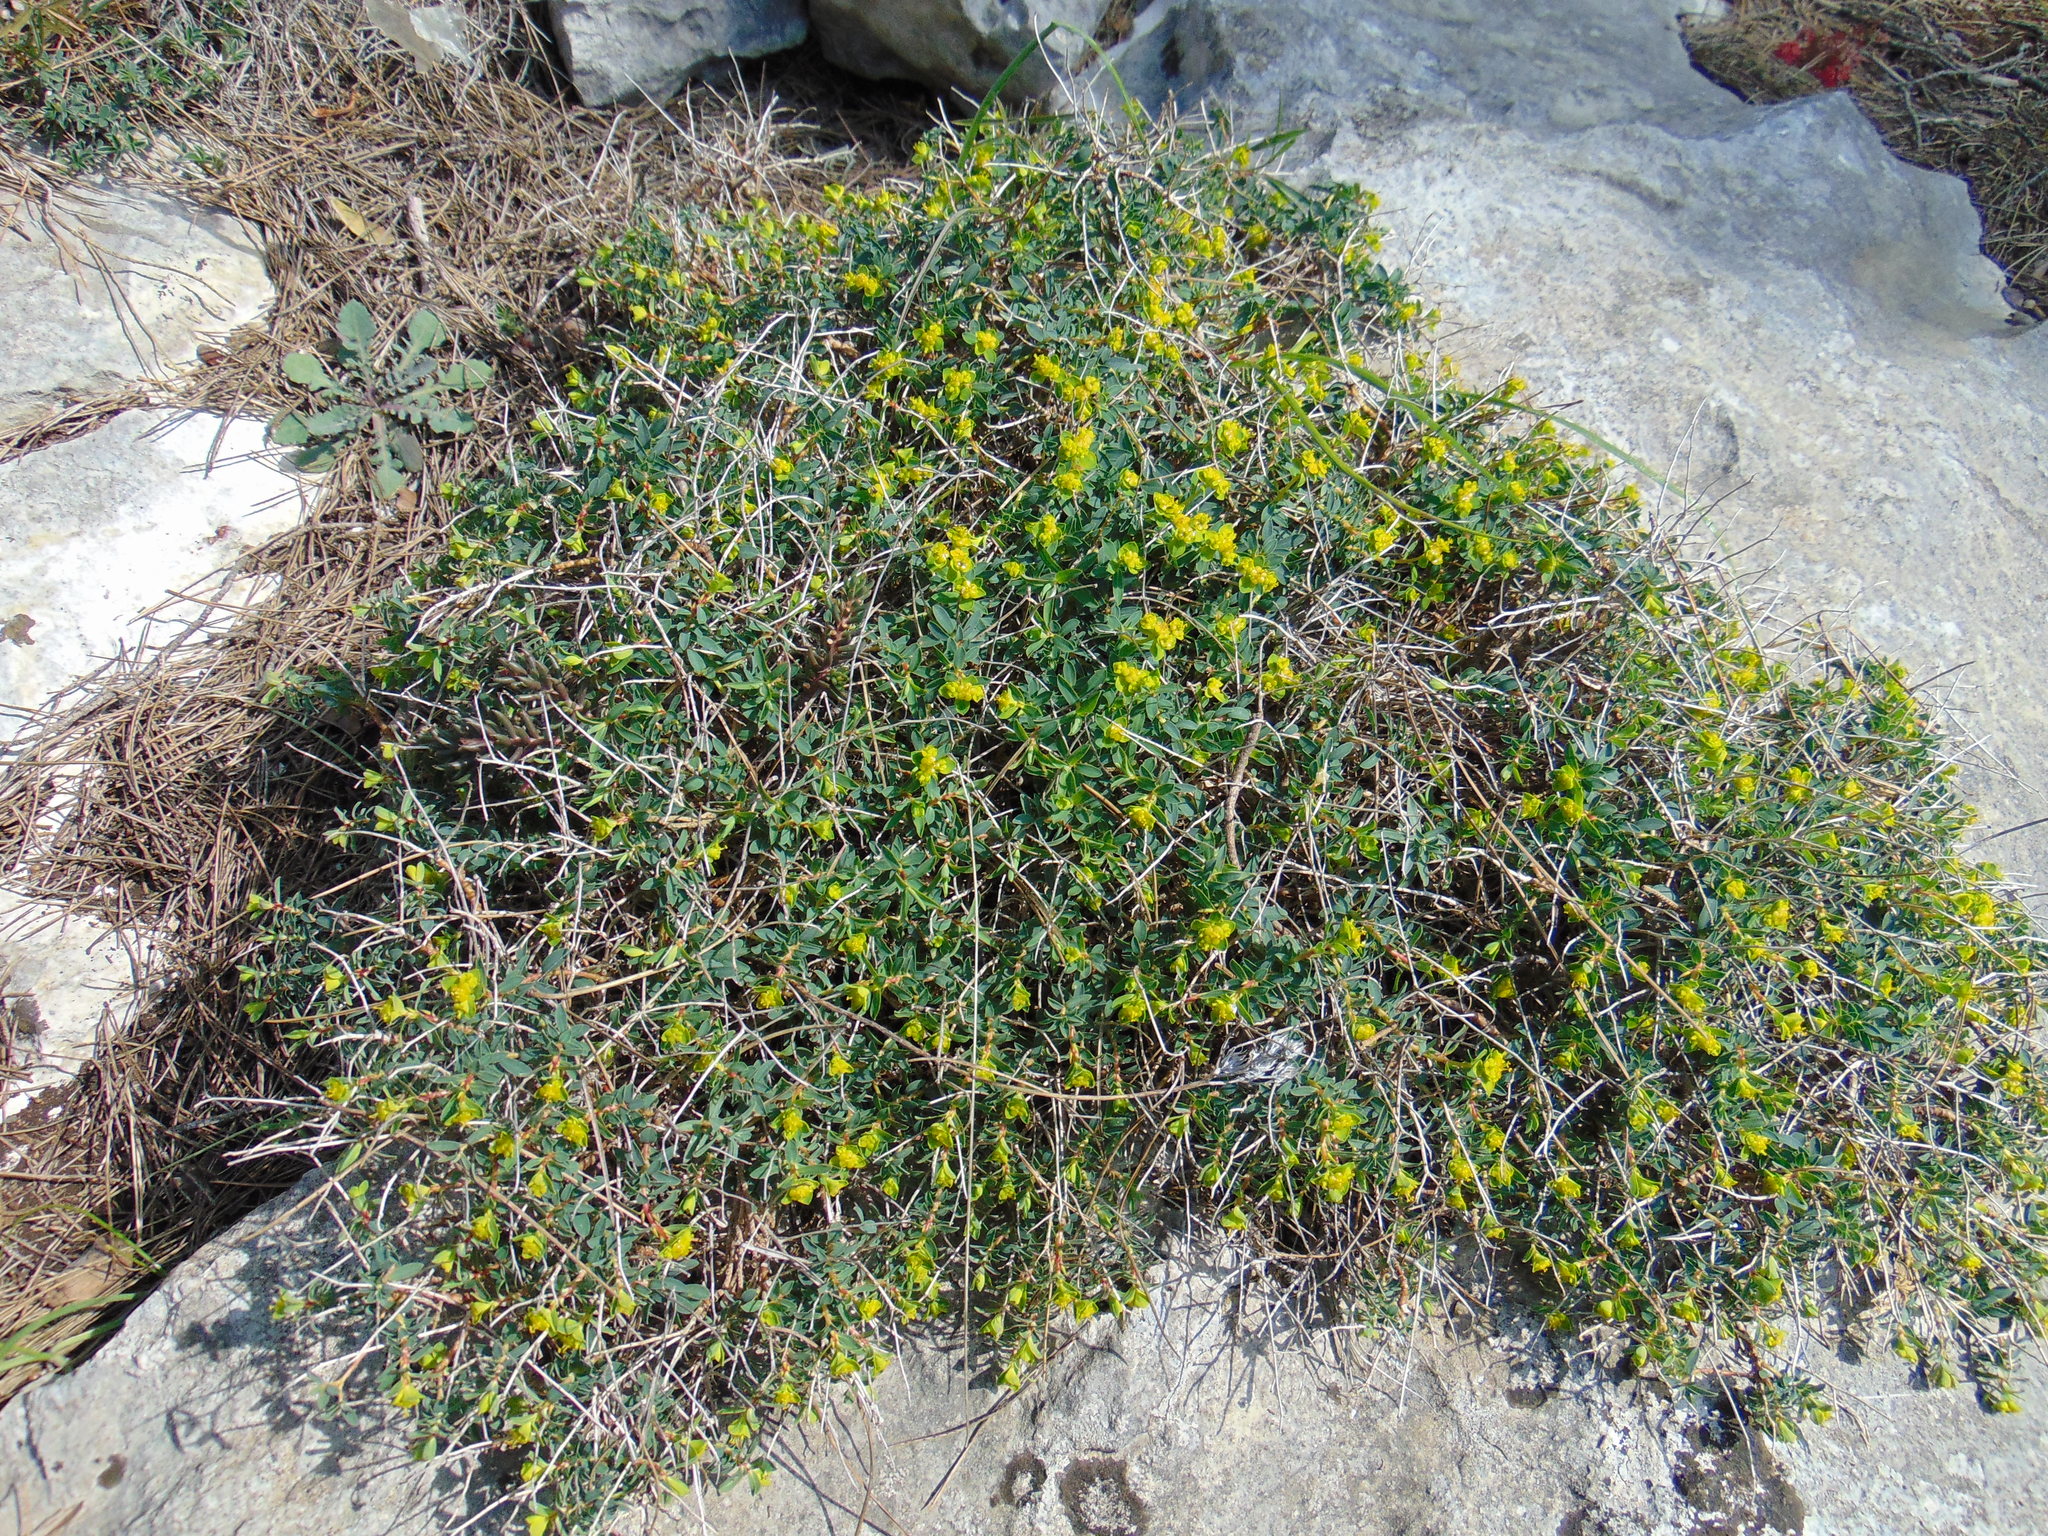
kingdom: Plantae
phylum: Tracheophyta
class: Magnoliopsida
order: Malpighiales
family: Euphorbiaceae
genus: Euphorbia
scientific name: Euphorbia spinosa
